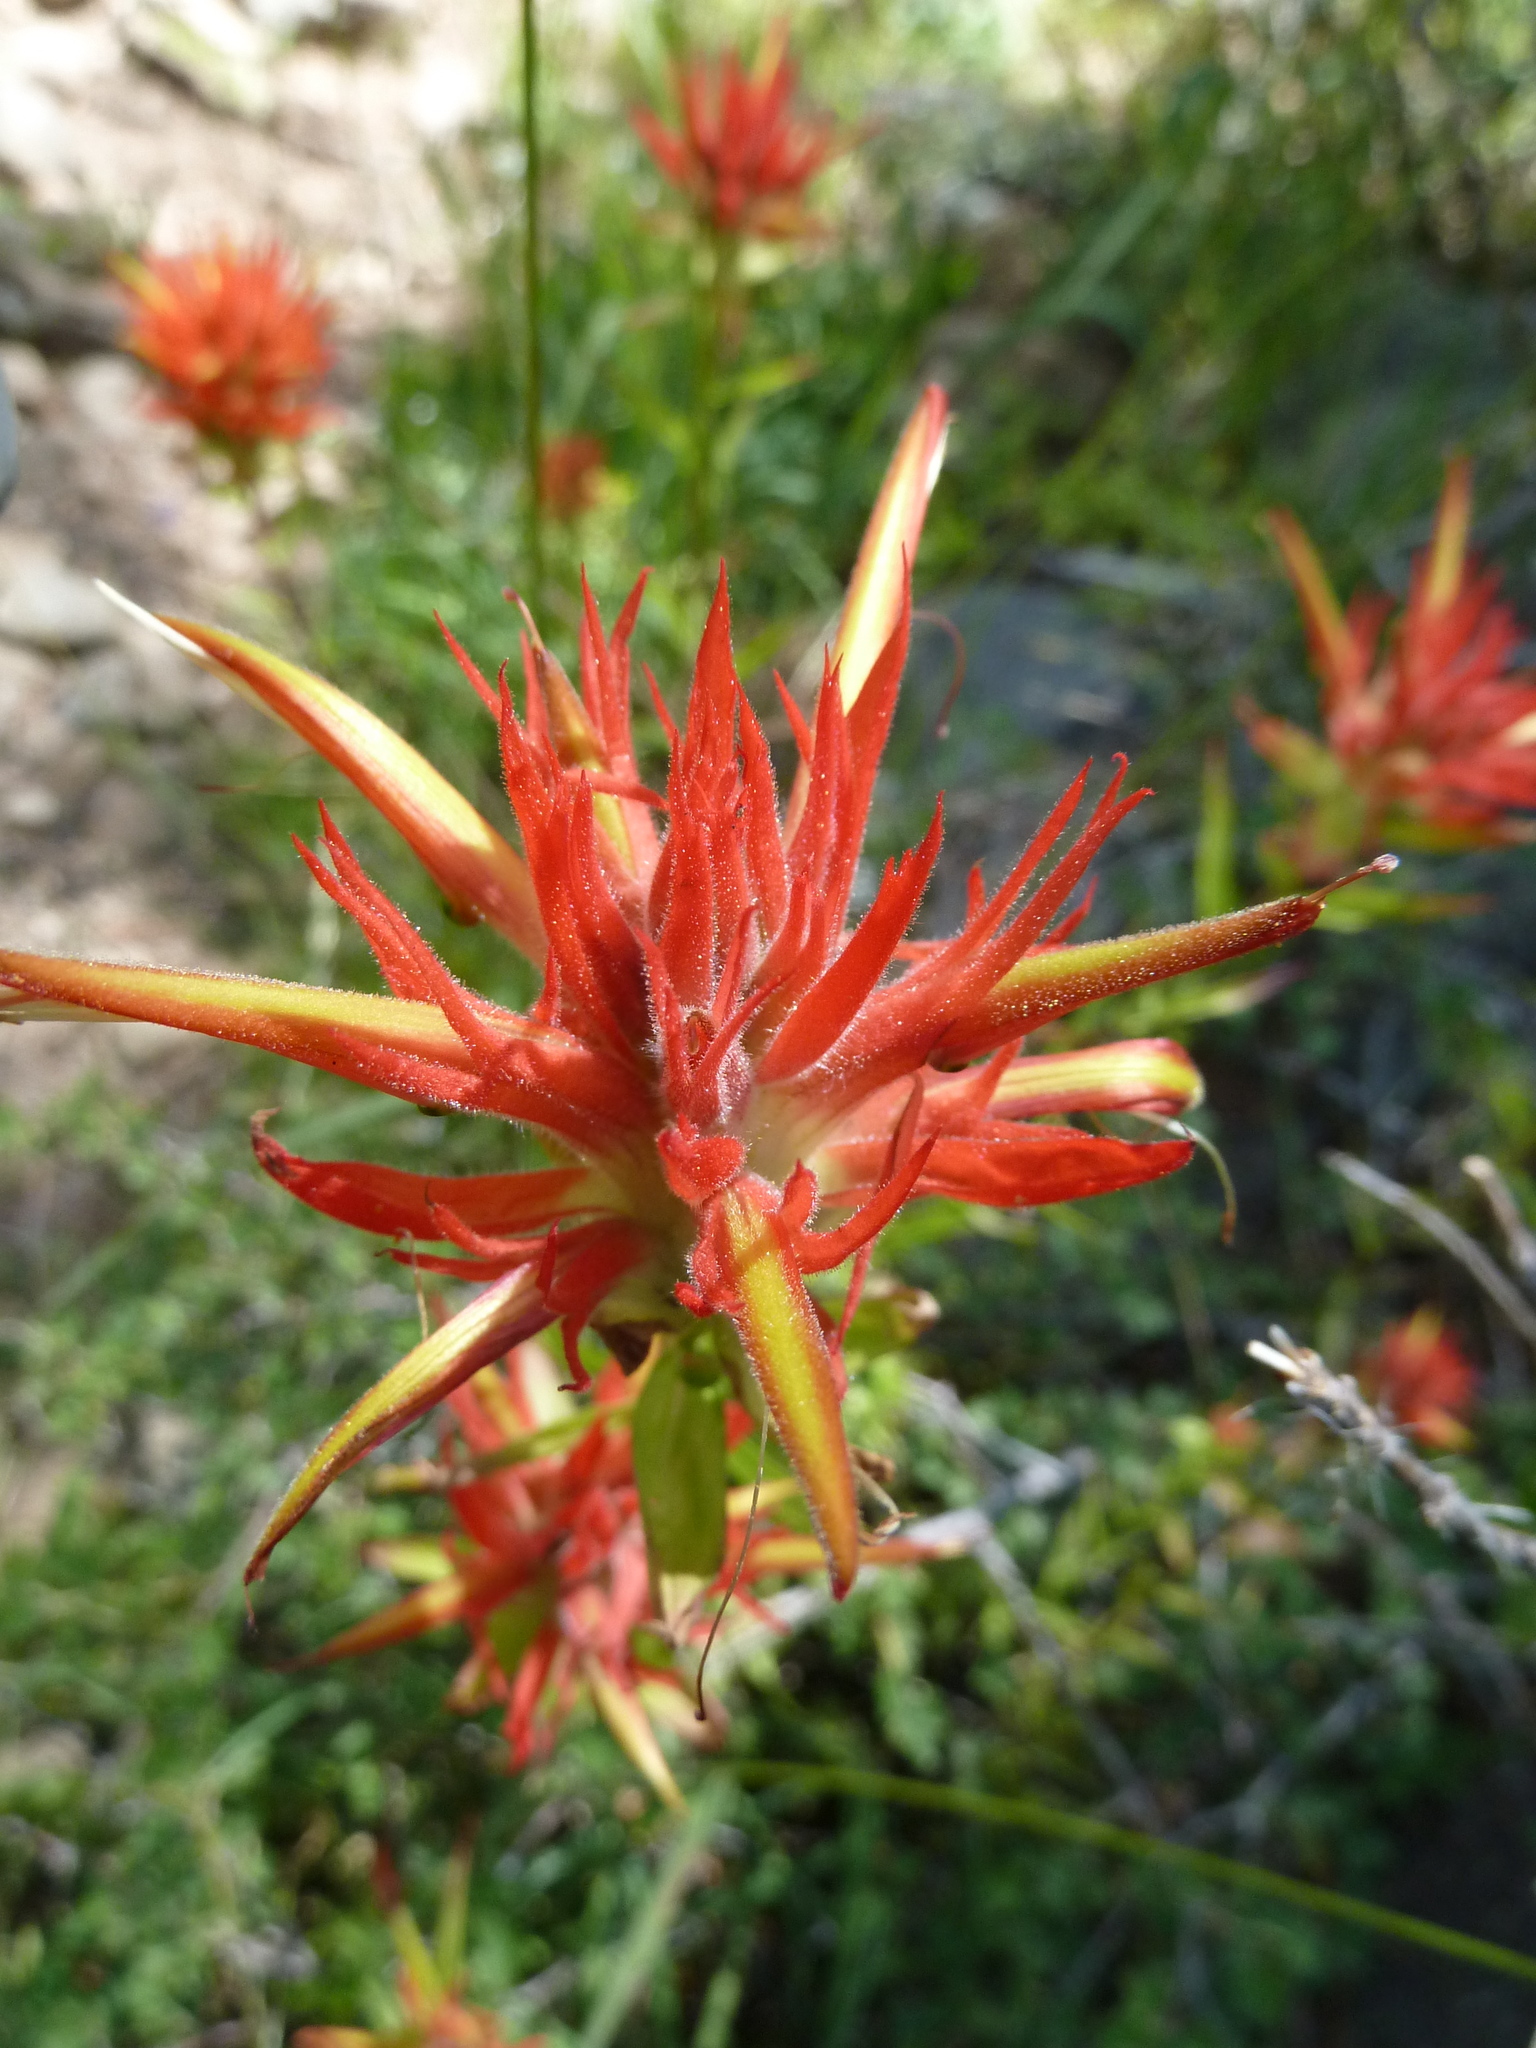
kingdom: Plantae
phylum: Tracheophyta
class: Magnoliopsida
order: Lamiales
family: Orobanchaceae
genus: Castilleja
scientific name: Castilleja miniata
